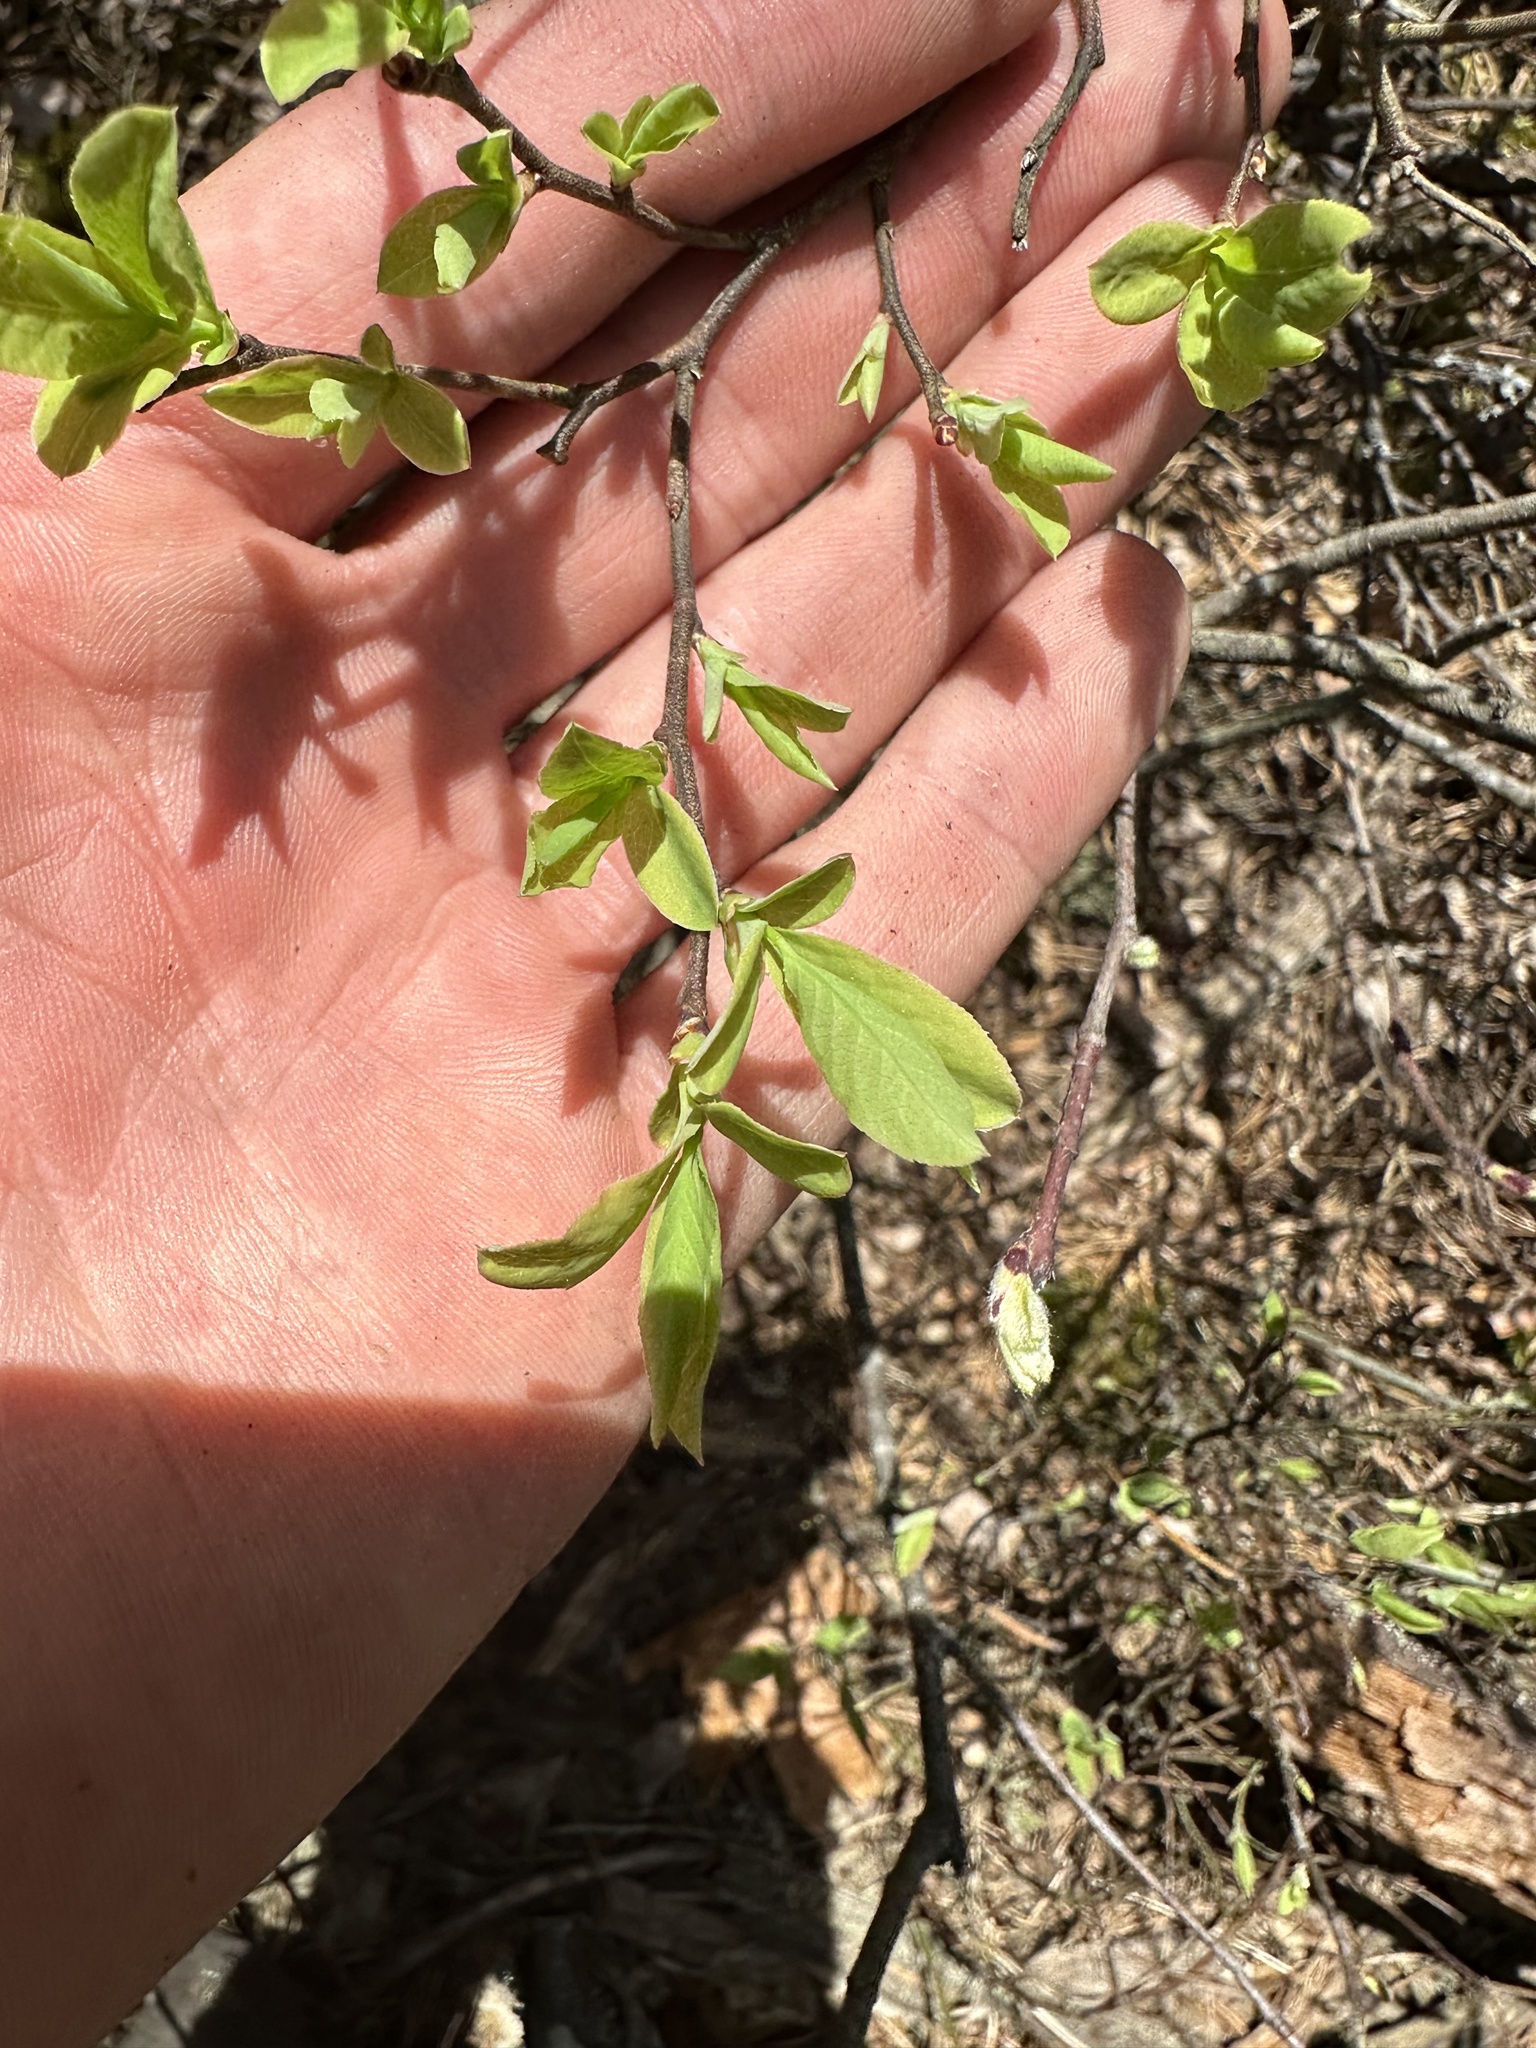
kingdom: Plantae
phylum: Tracheophyta
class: Magnoliopsida
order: Ericales
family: Ericaceae
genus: Vaccinium
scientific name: Vaccinium angustifolium
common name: Early lowbush blueberry
